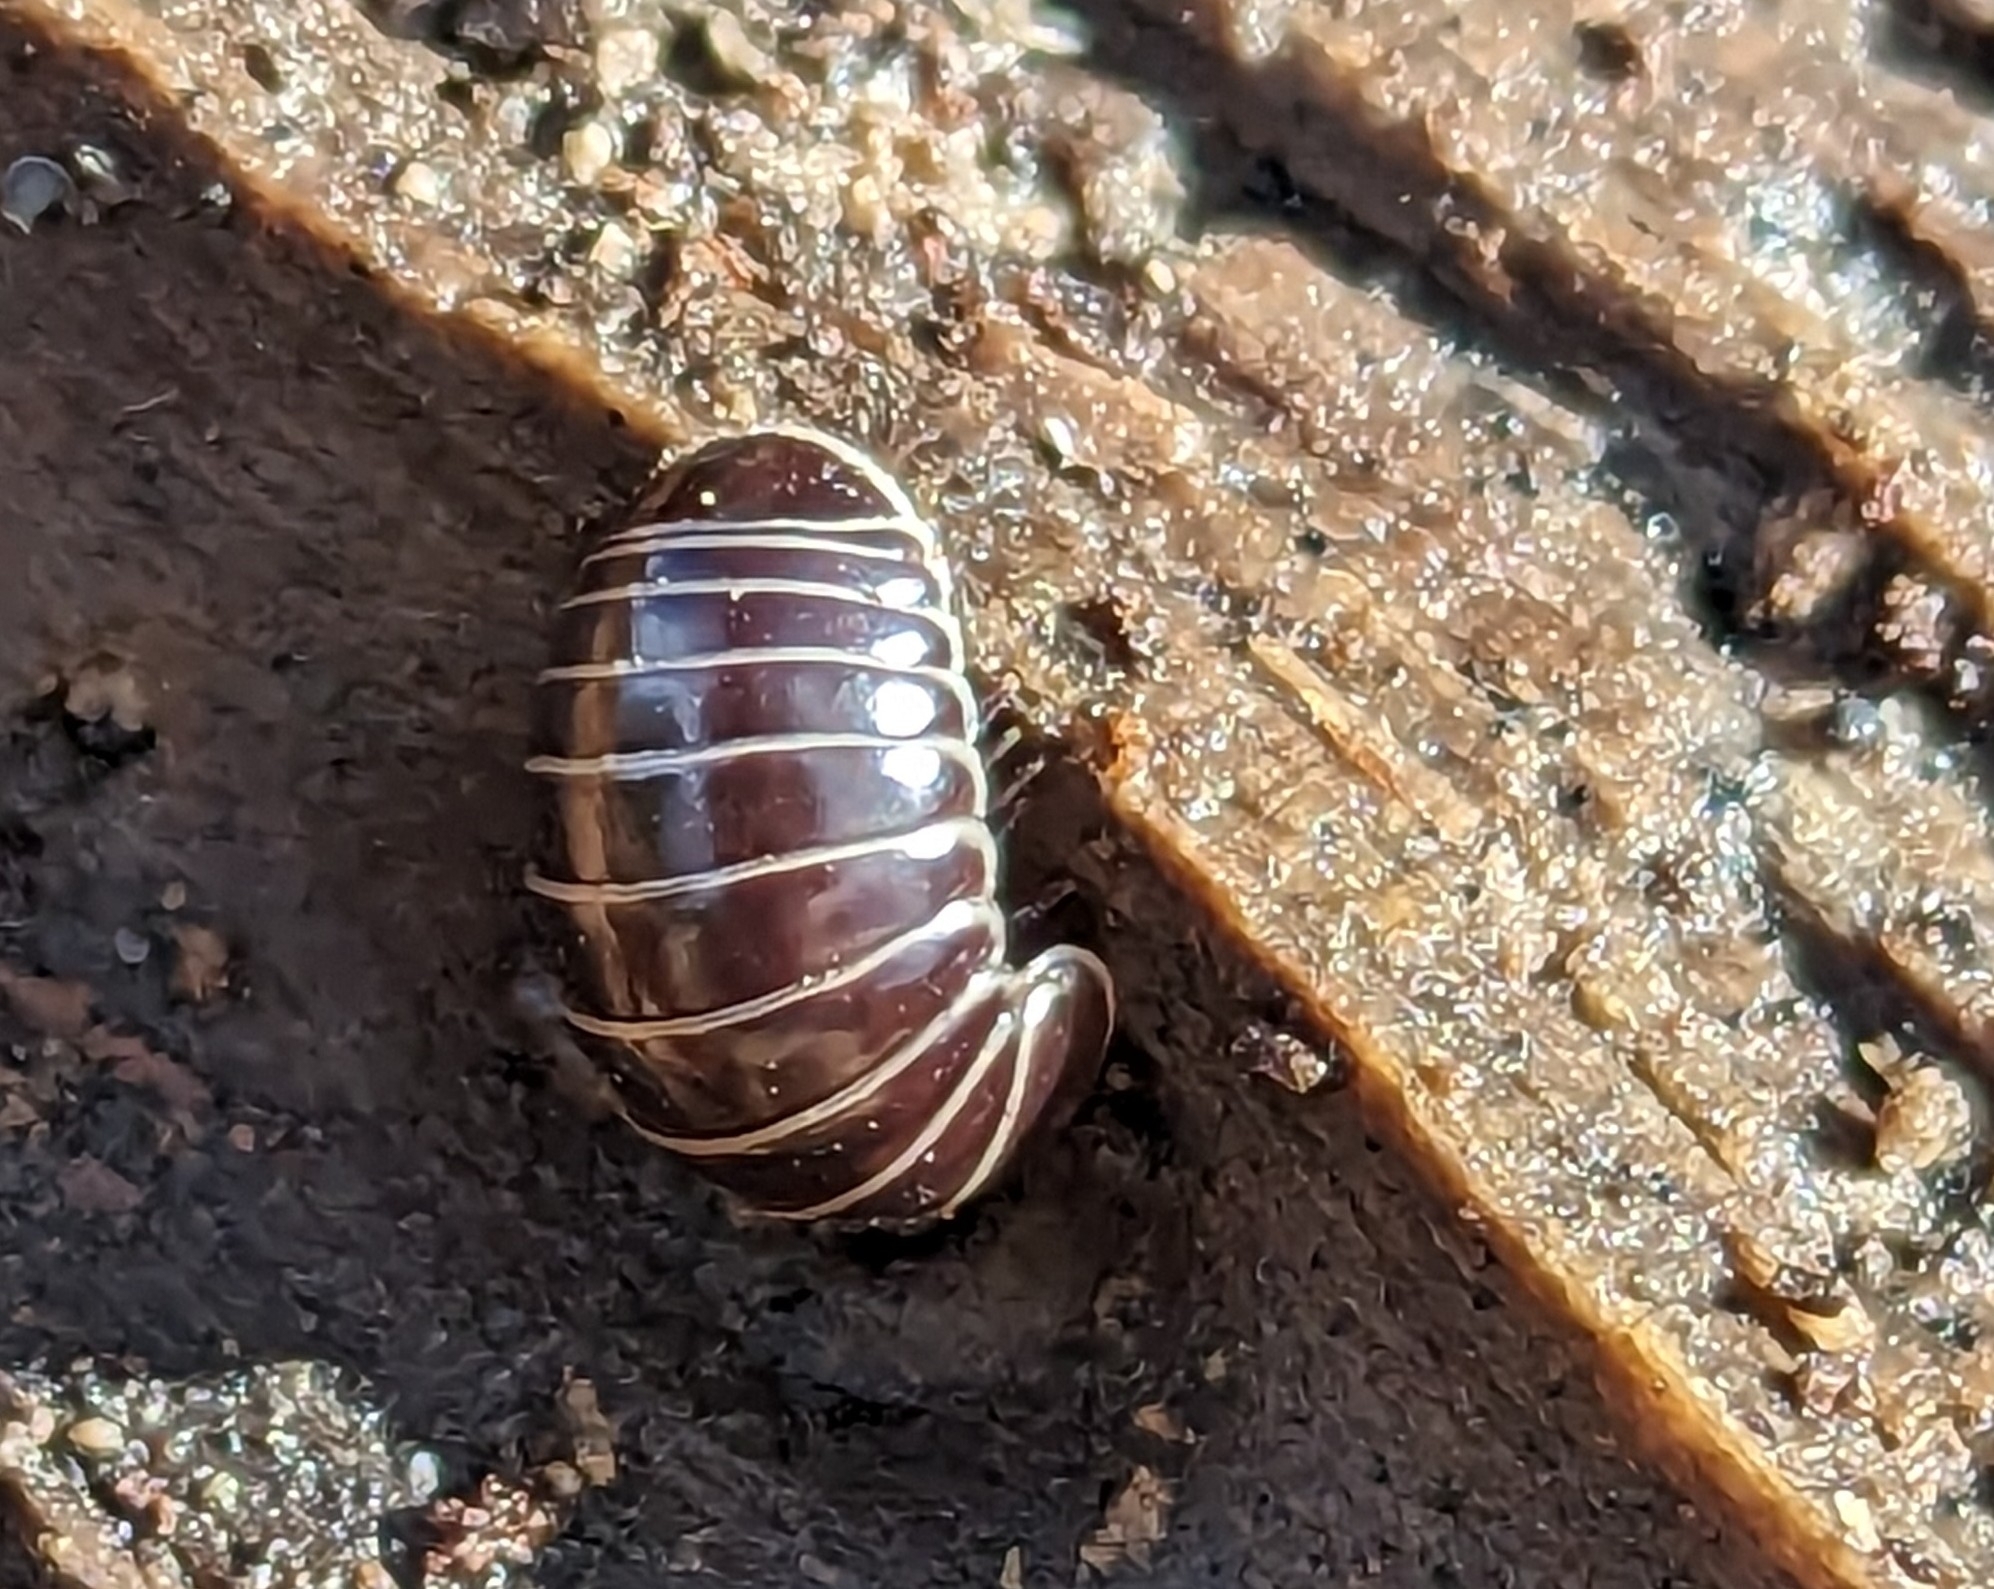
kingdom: Animalia
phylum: Arthropoda
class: Diplopoda
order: Glomerida
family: Glomeridae
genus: Glomeris
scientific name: Glomeris marginata
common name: Bordered pill millipede
